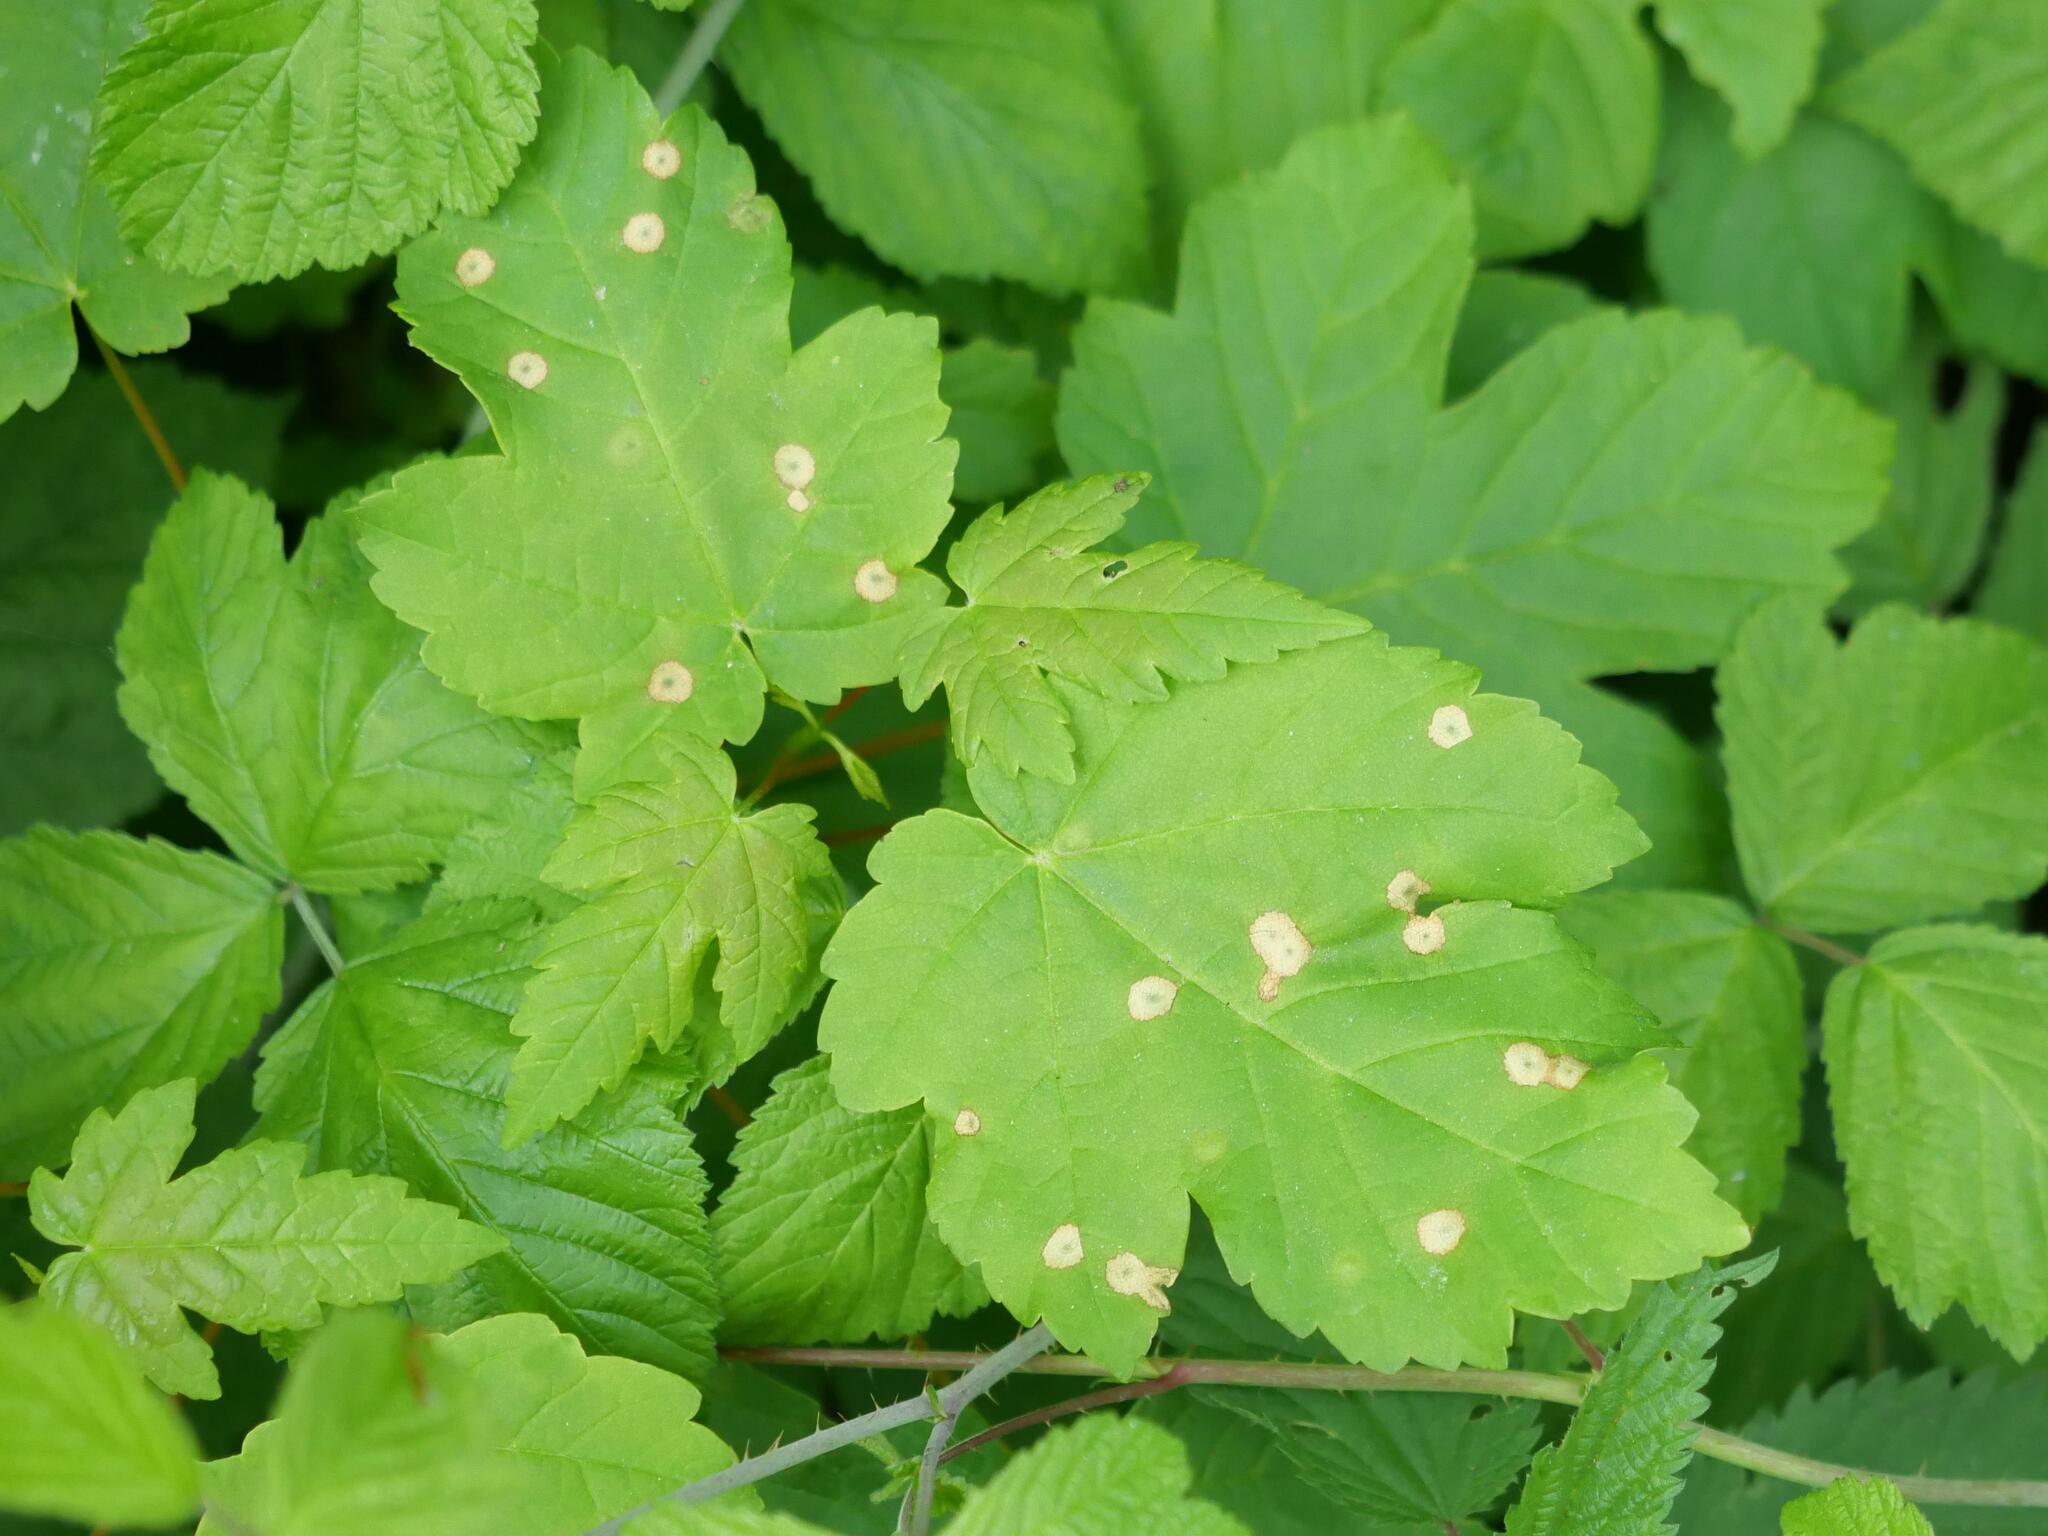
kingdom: Plantae
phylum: Tracheophyta
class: Magnoliopsida
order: Sapindales
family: Sapindaceae
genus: Acer
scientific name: Acer pseudoplatanus
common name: Sycamore
